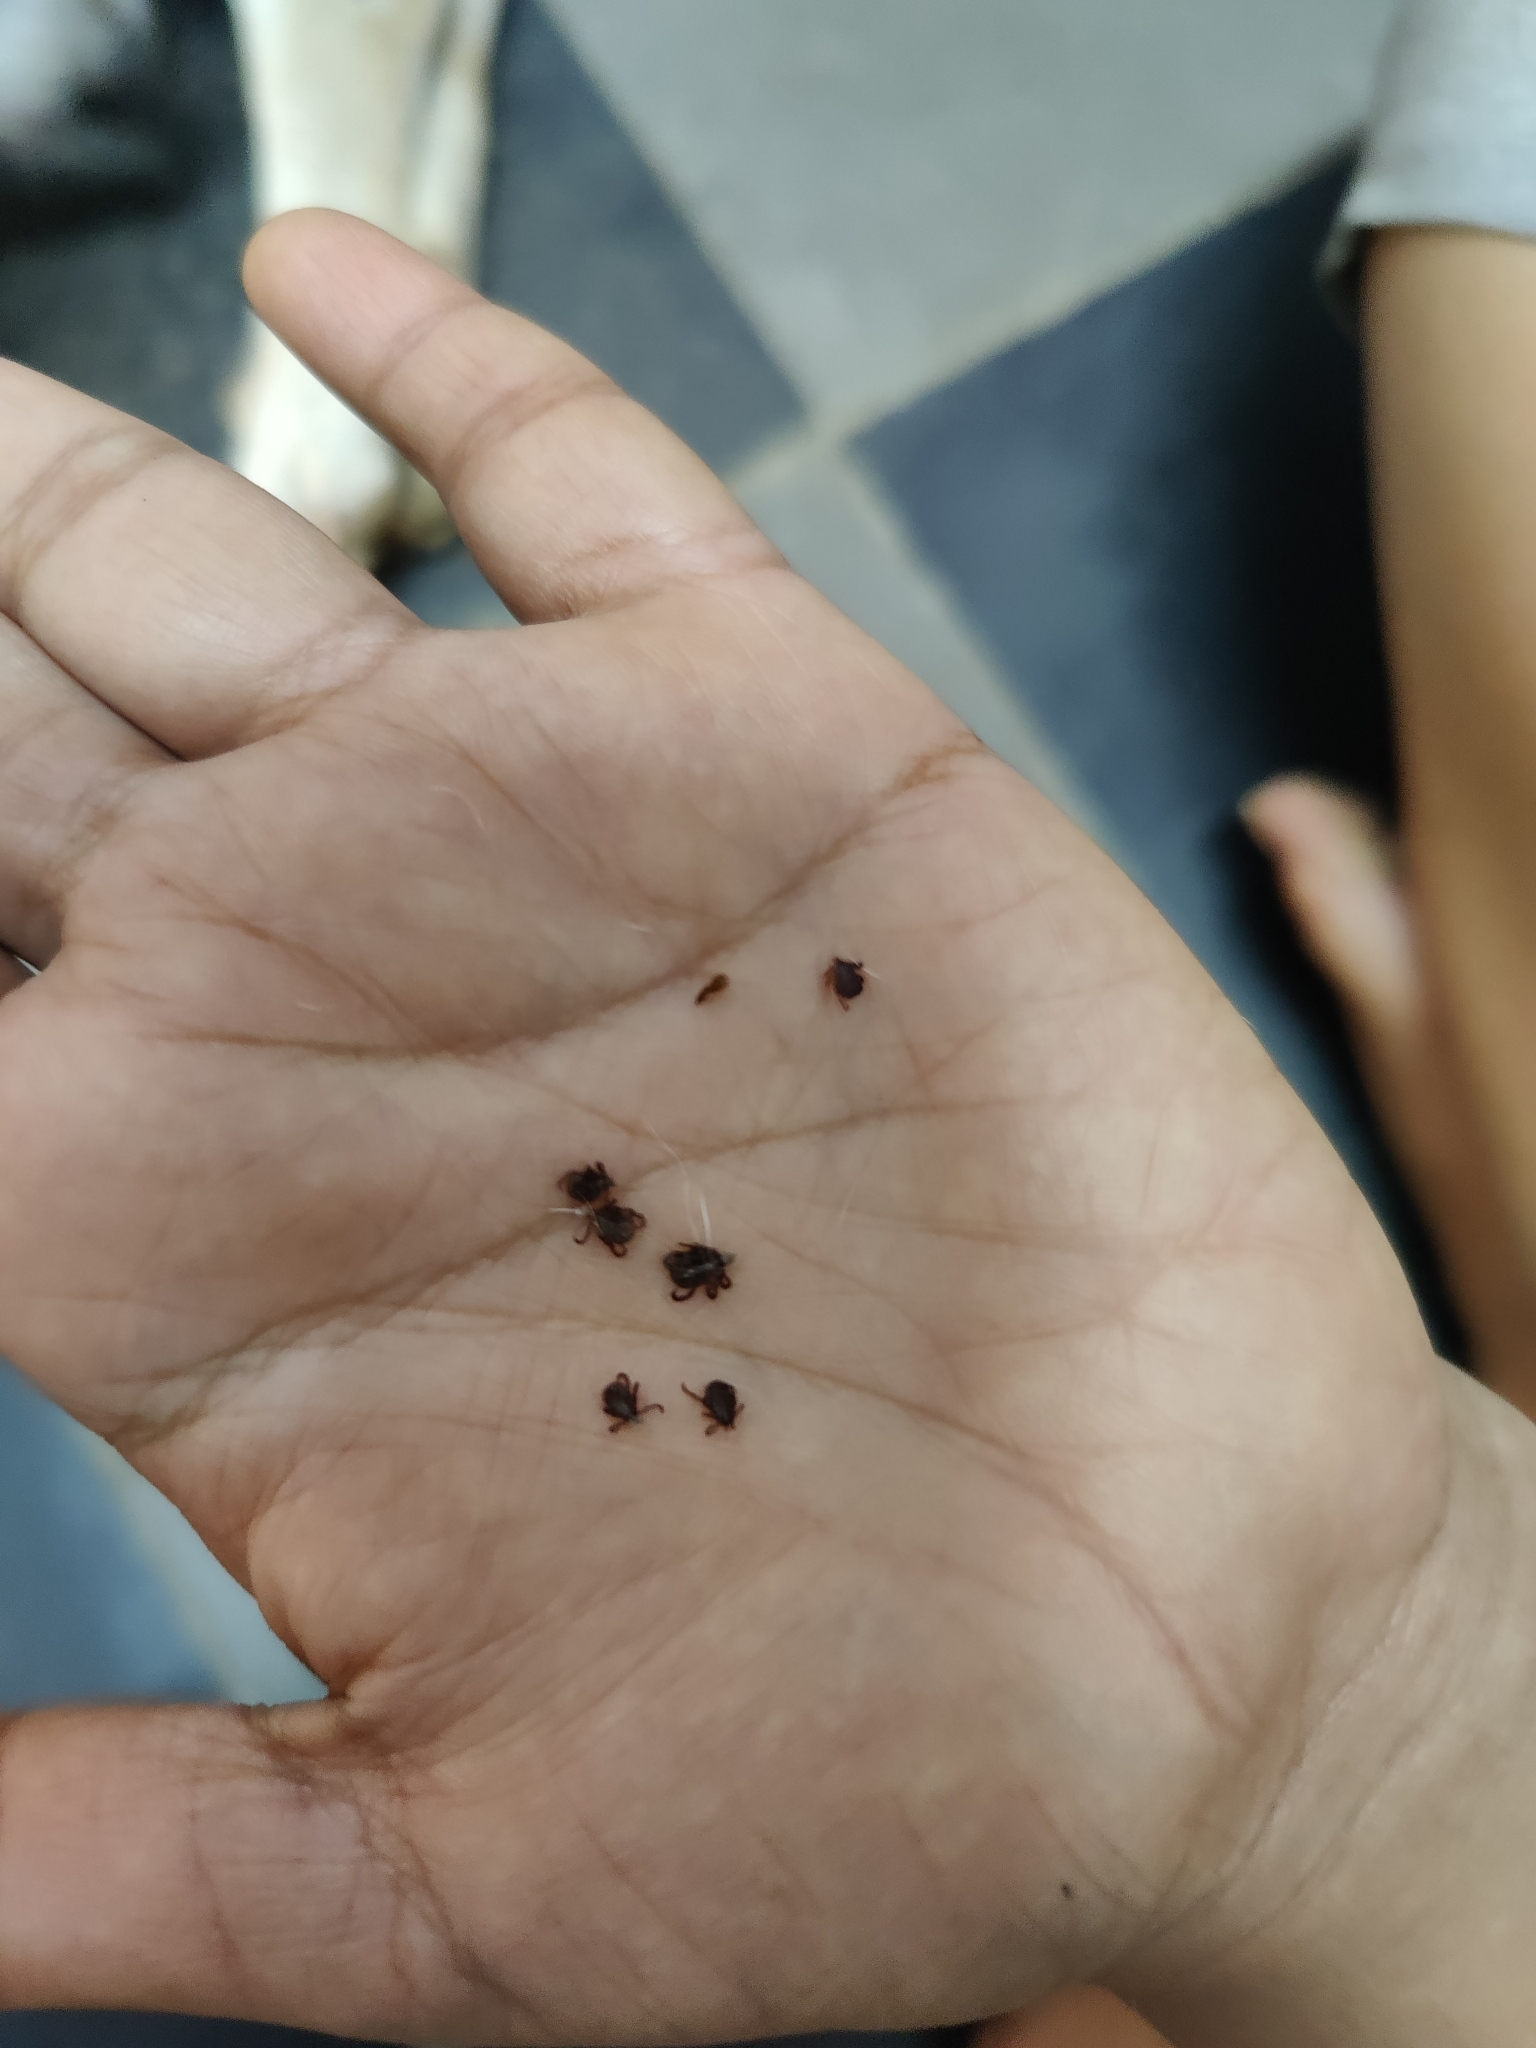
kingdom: Animalia
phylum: Arthropoda
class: Arachnida
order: Ixodida
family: Ixodidae
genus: Rhipicephalus
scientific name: Rhipicephalus sanguineus
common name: Brown dog tick
